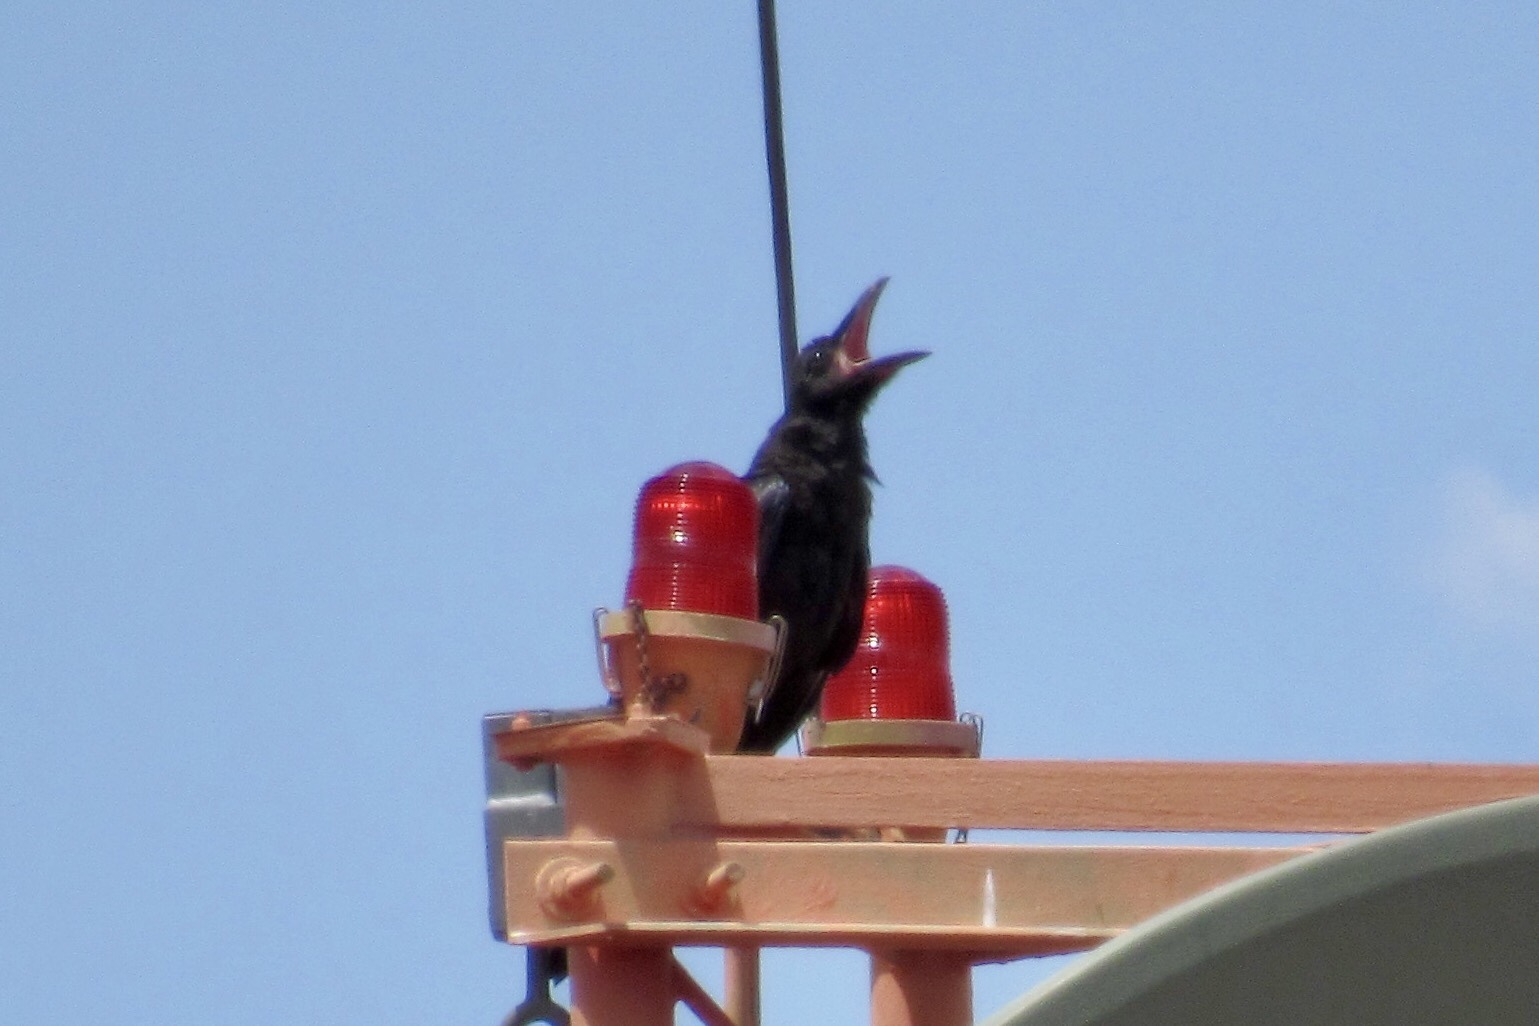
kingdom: Animalia
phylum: Chordata
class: Aves
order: Passeriformes
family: Corvidae
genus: Corvus
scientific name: Corvus corax
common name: Common raven
